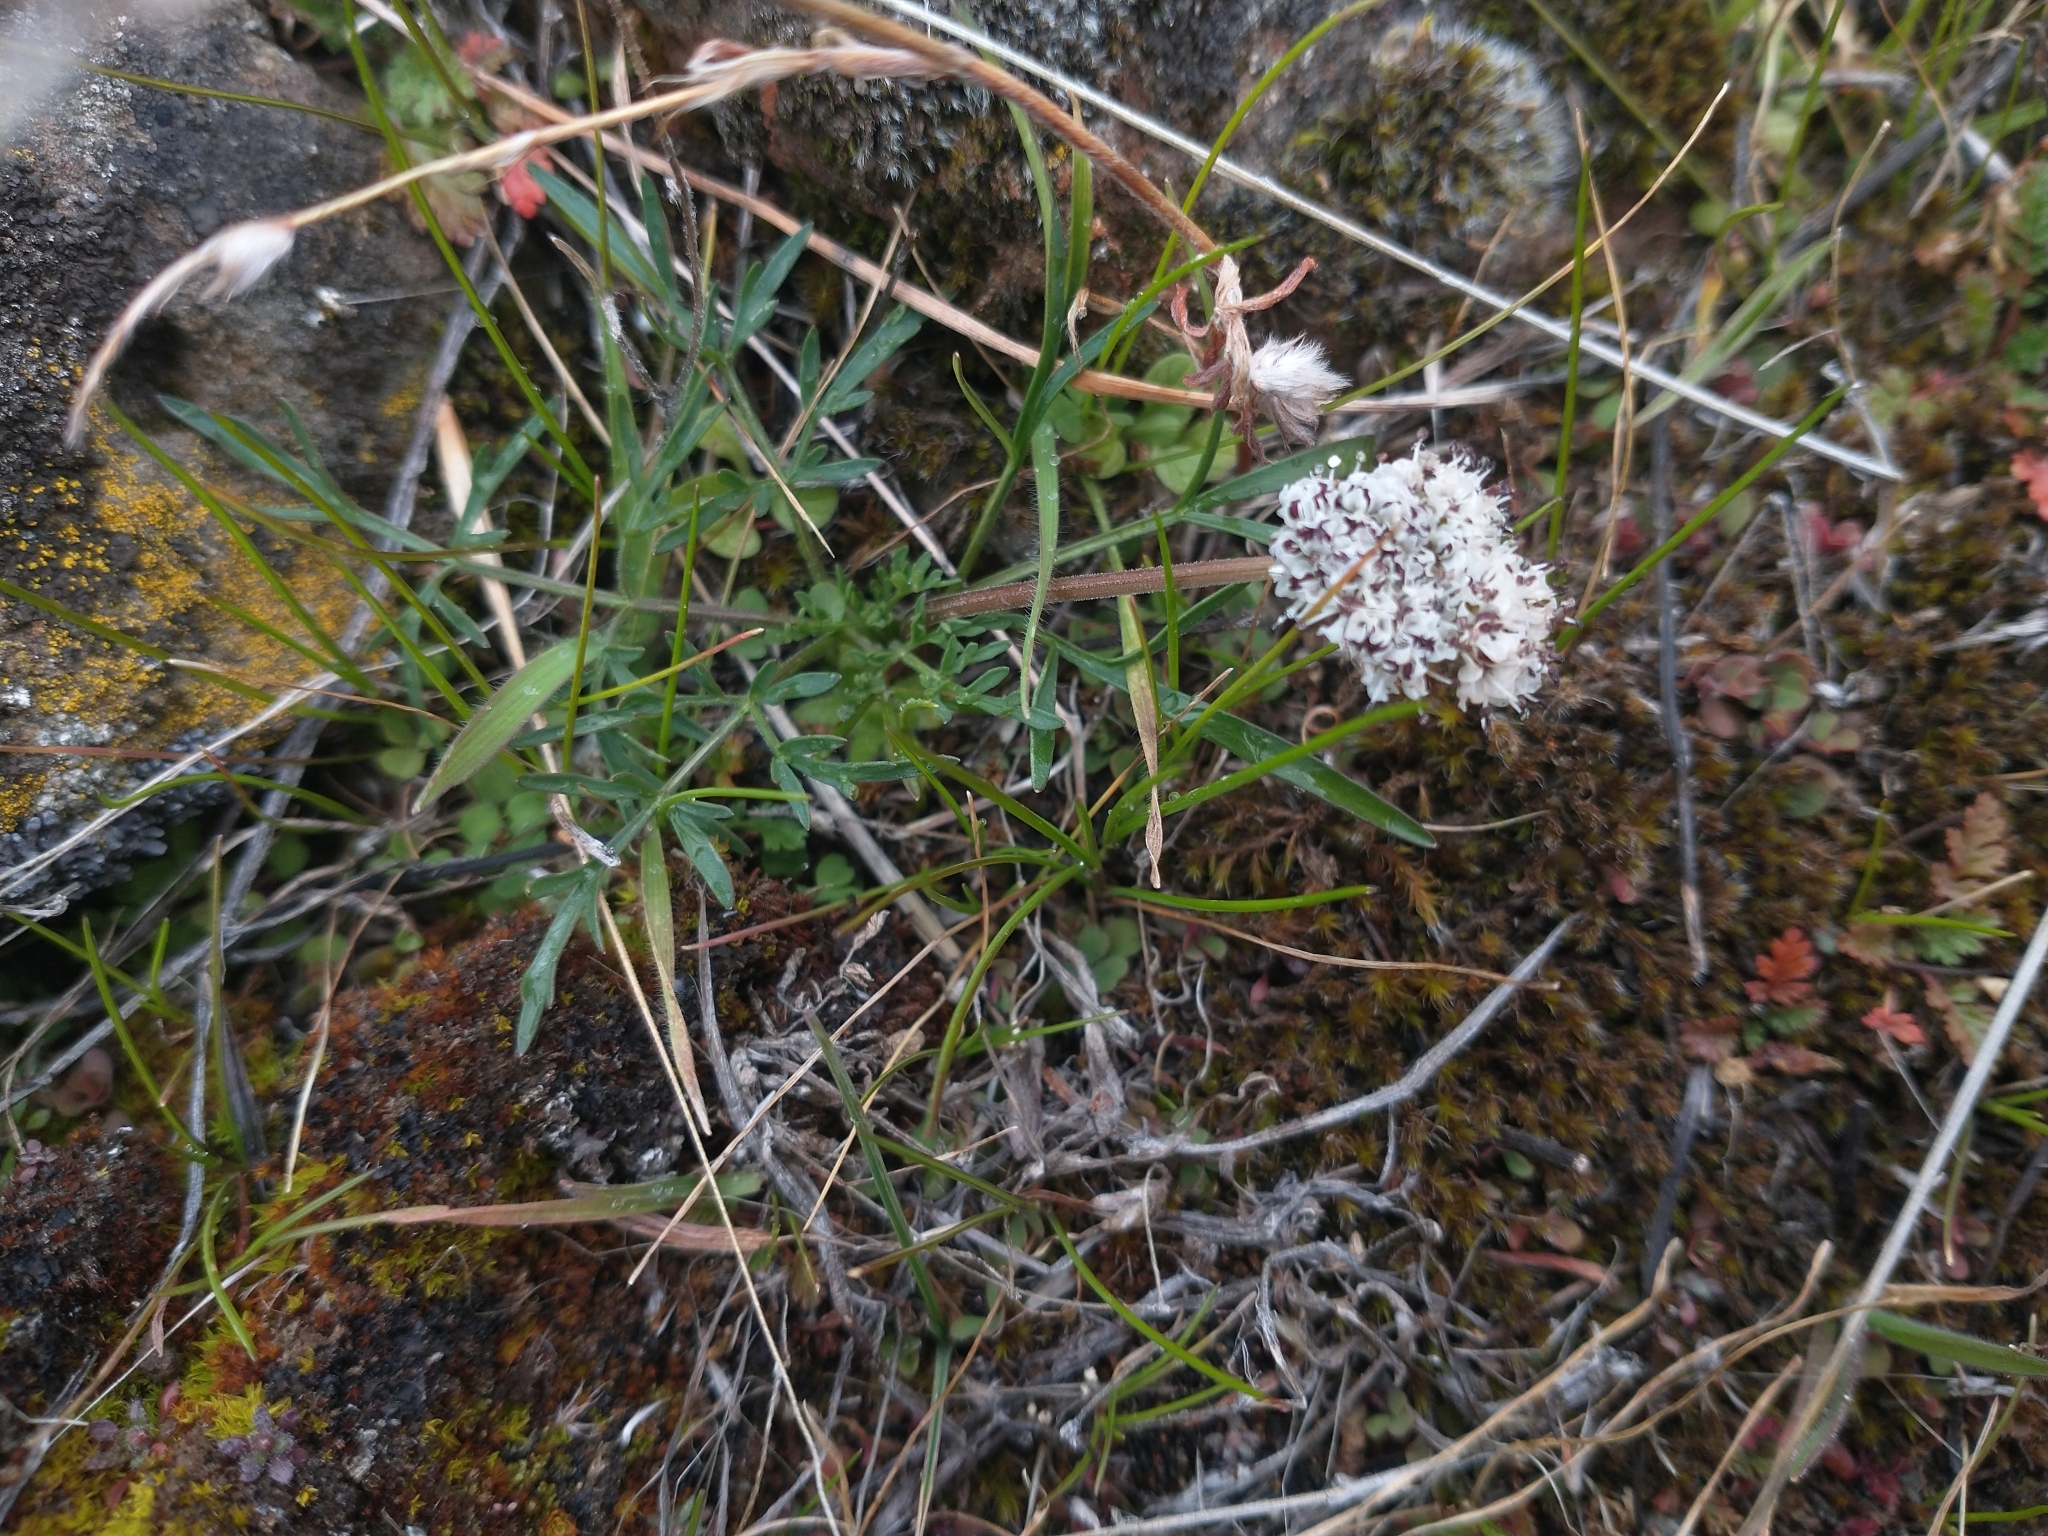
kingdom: Plantae
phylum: Tracheophyta
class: Magnoliopsida
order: Apiales
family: Apiaceae
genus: Lomatium
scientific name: Lomatium gormanii
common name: Gorman's biscuitroot
